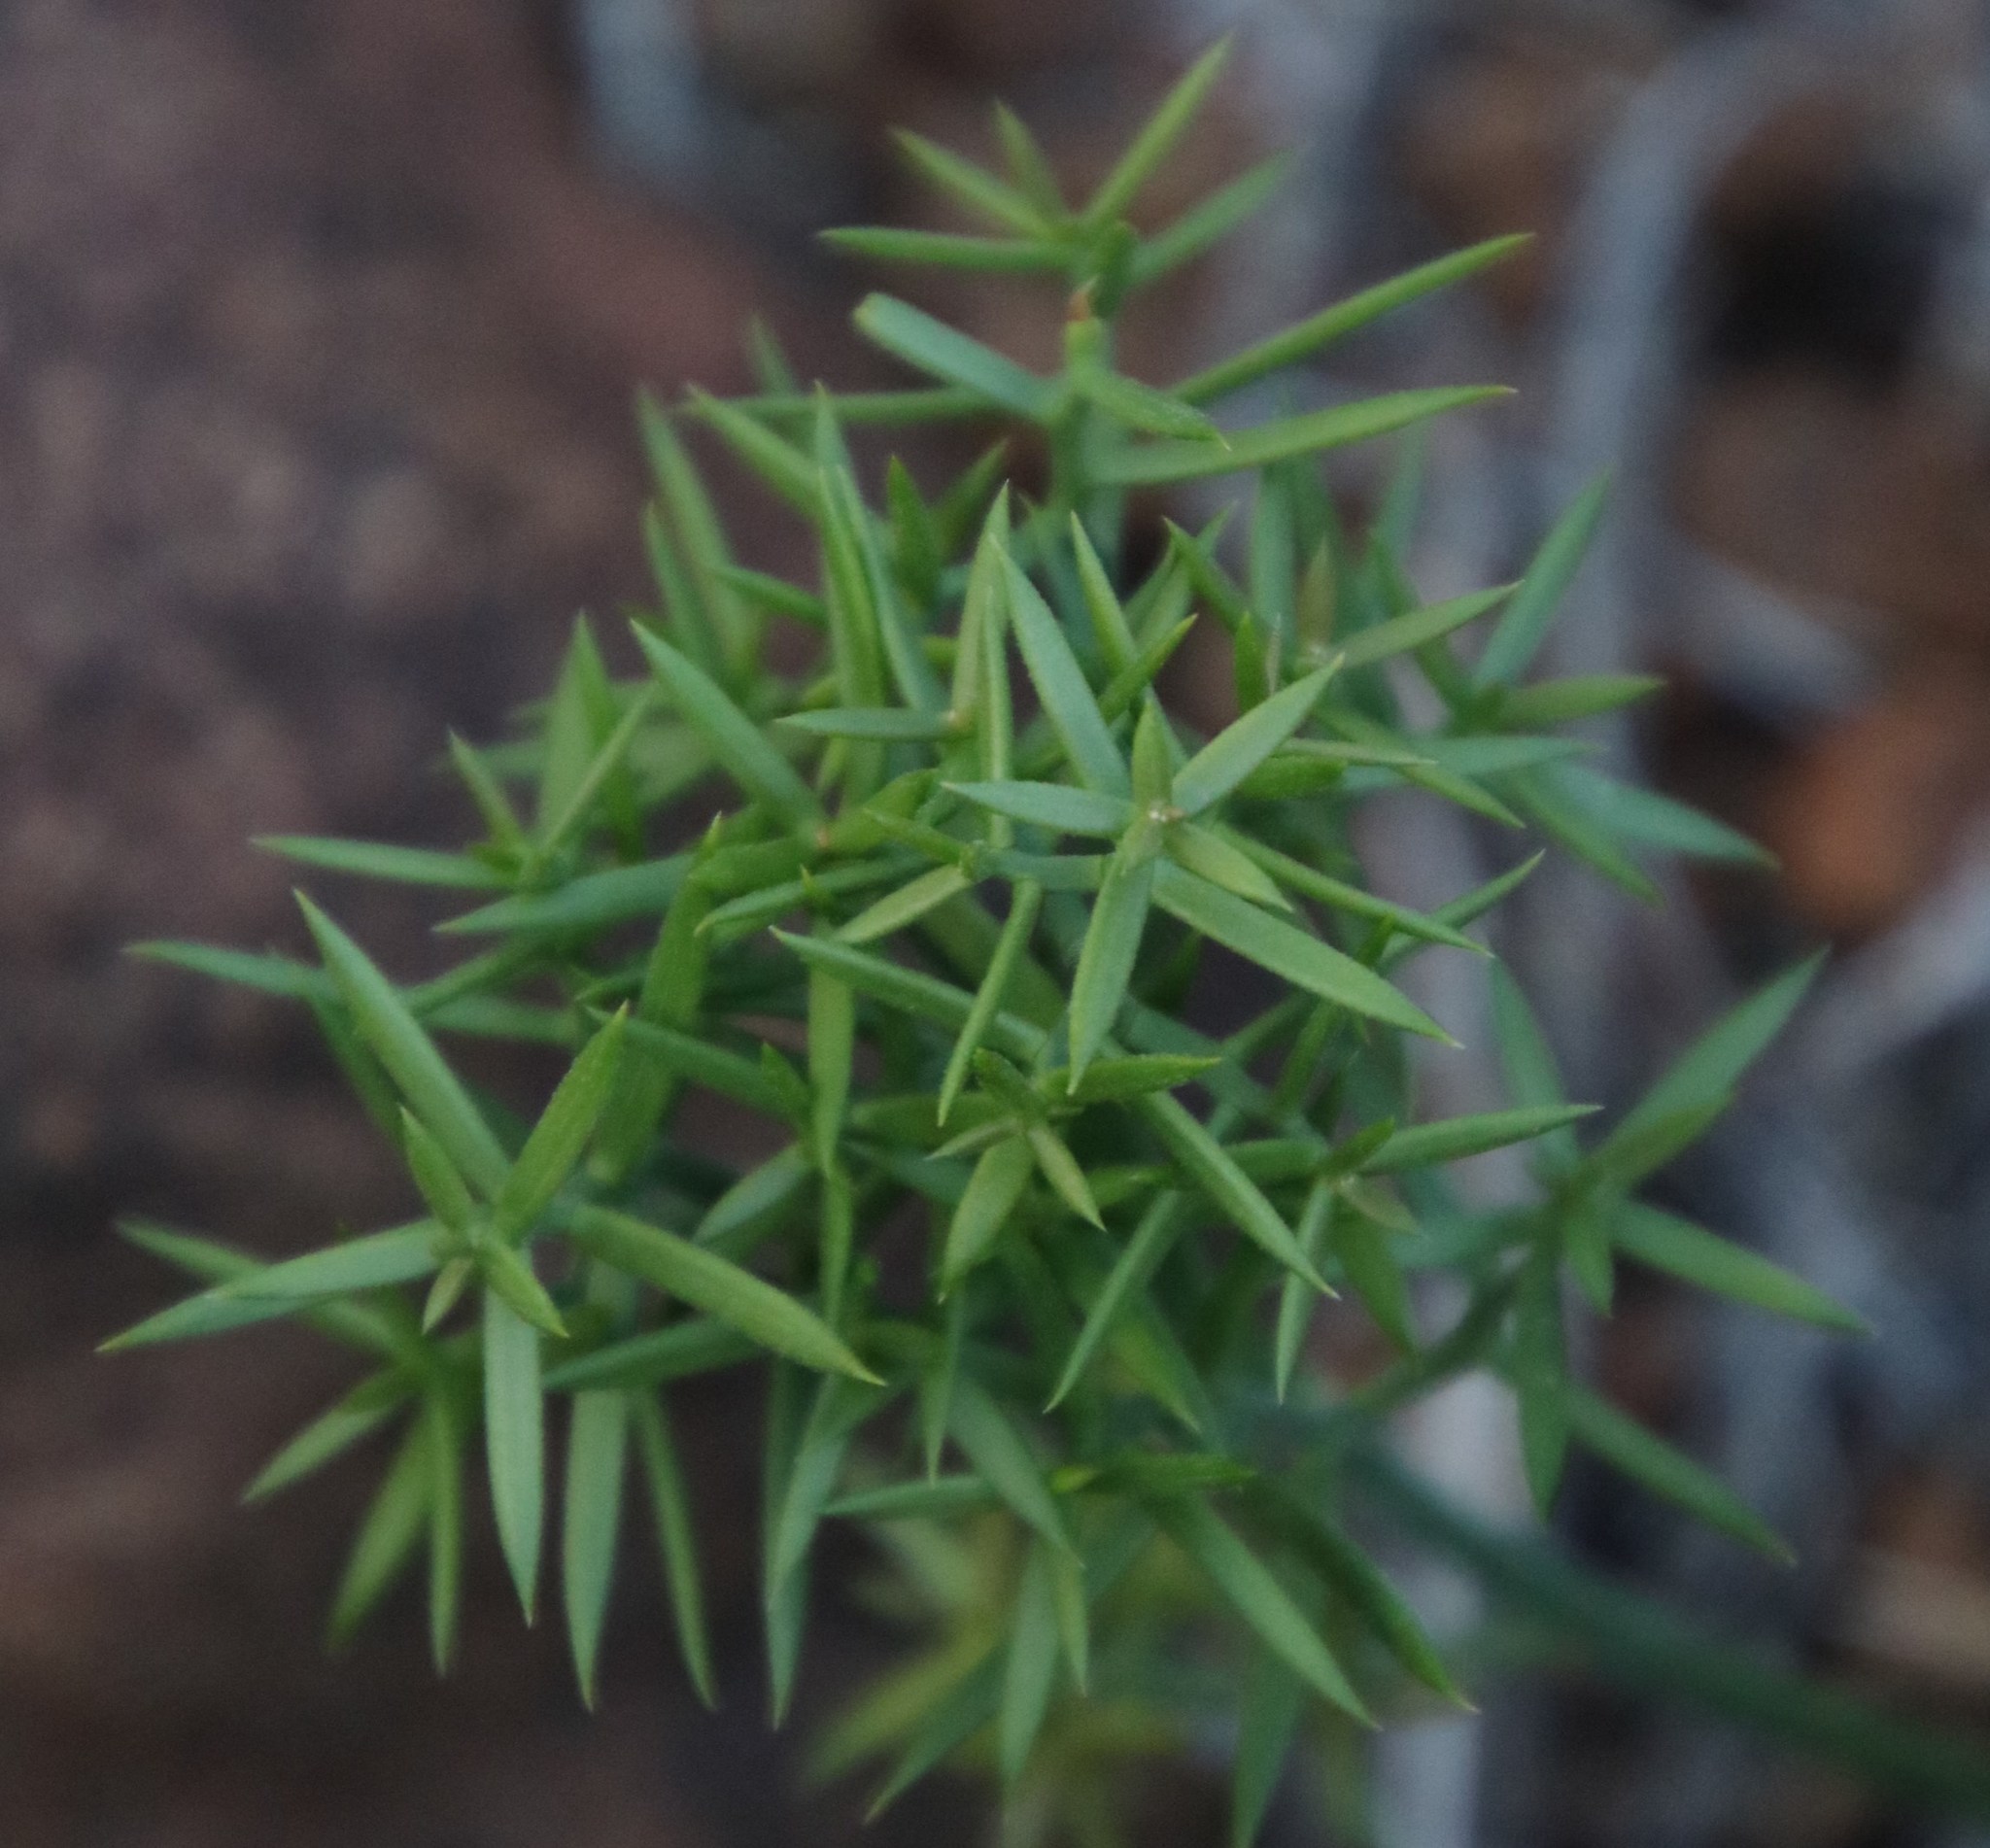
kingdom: Plantae
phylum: Tracheophyta
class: Liliopsida
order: Asparagales
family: Asparagaceae
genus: Asparagus
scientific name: Asparagus striatus
